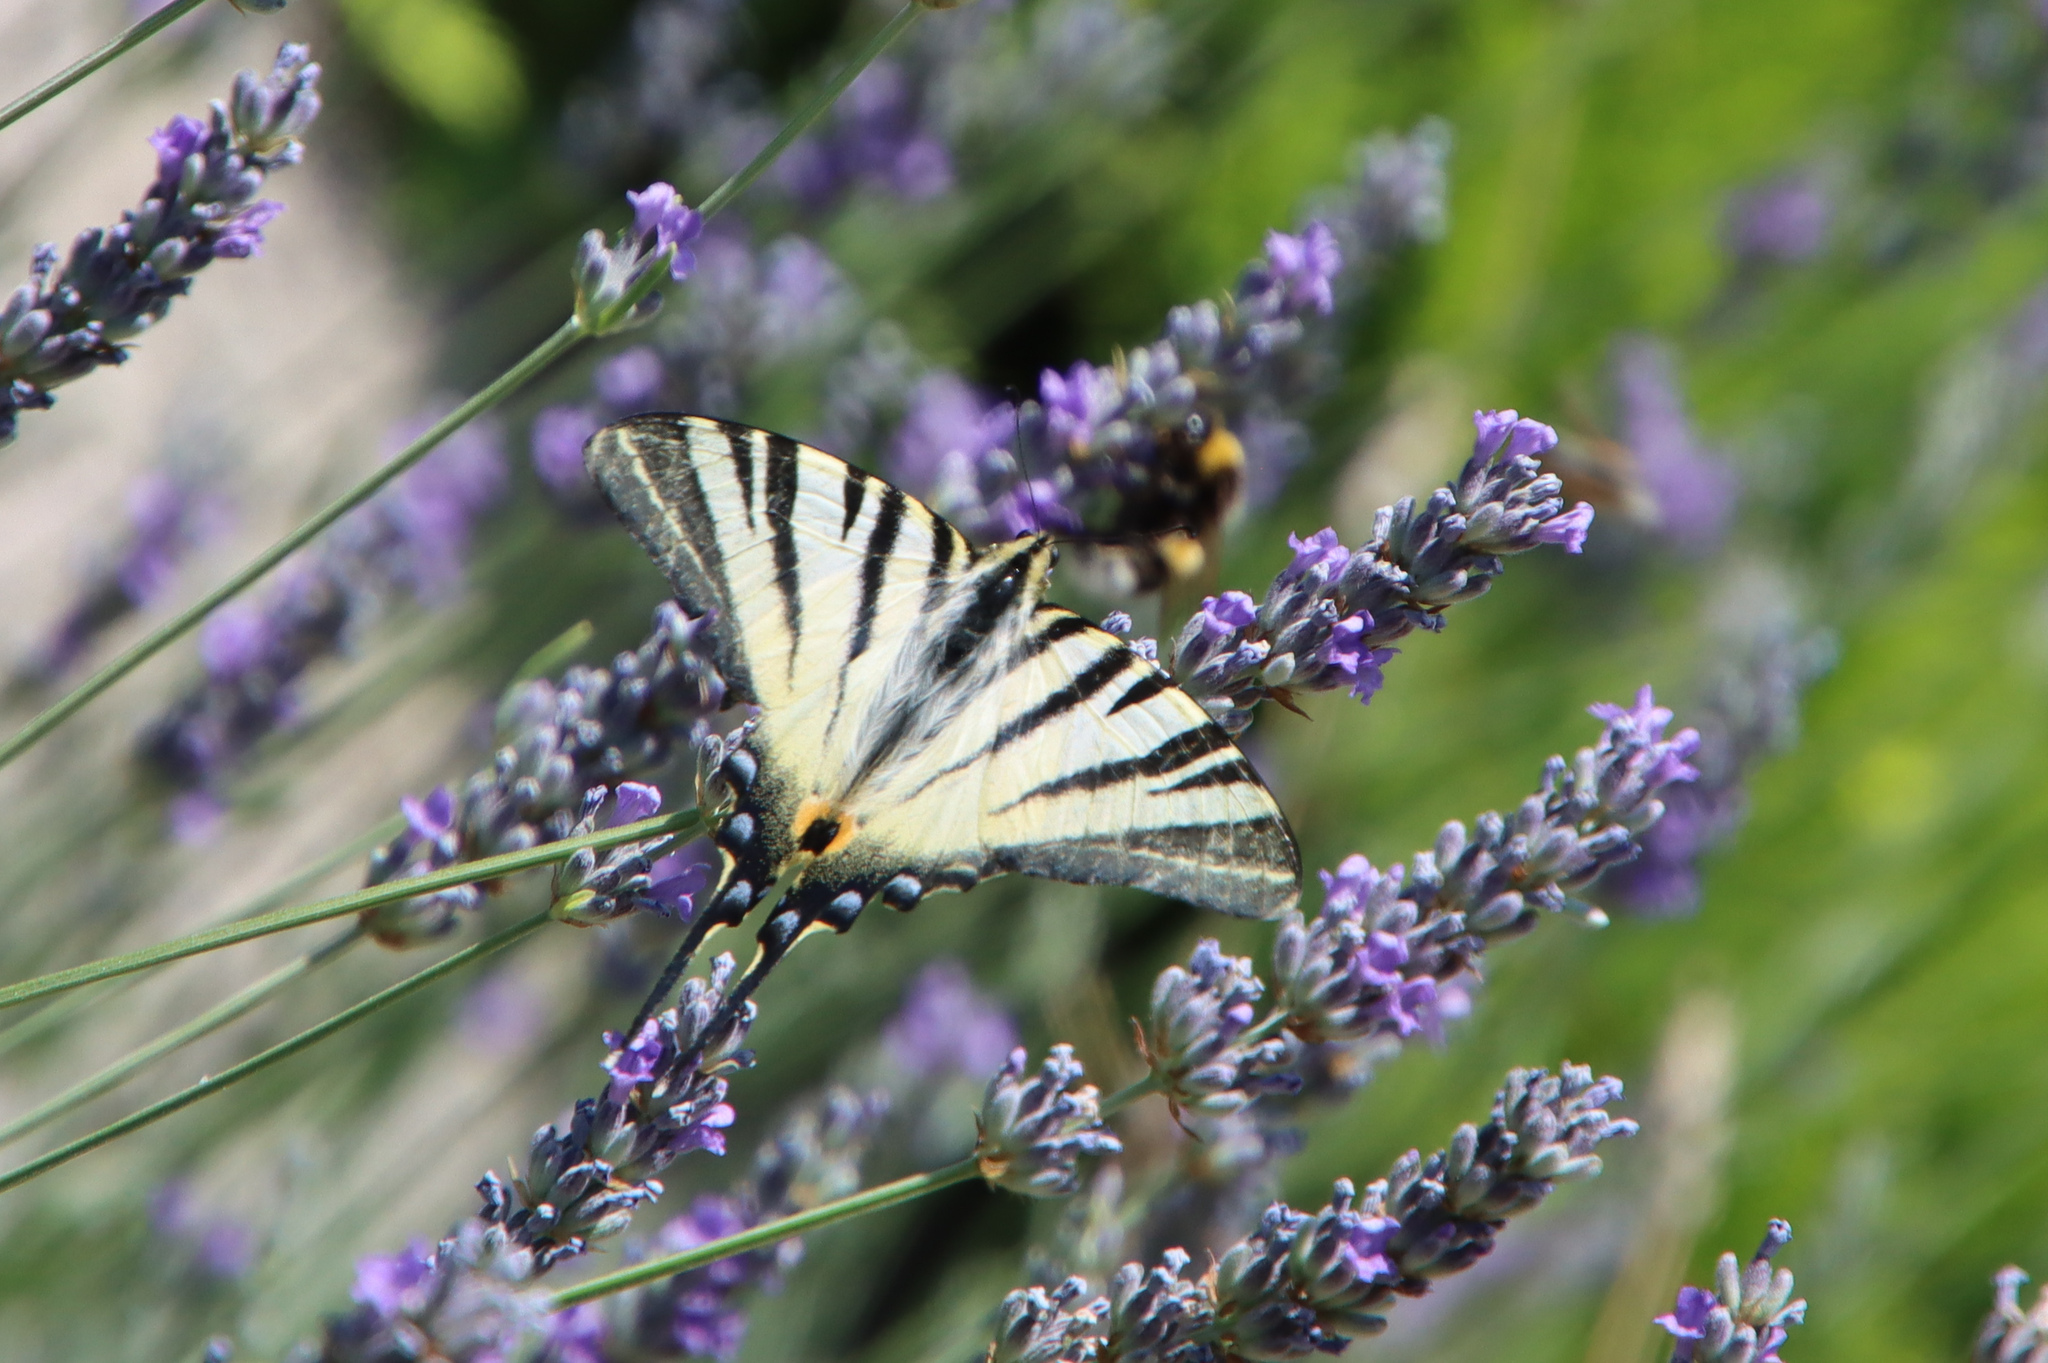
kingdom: Animalia
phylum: Arthropoda
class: Insecta
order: Lepidoptera
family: Papilionidae
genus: Iphiclides
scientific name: Iphiclides podalirius
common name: Scarce swallowtail
